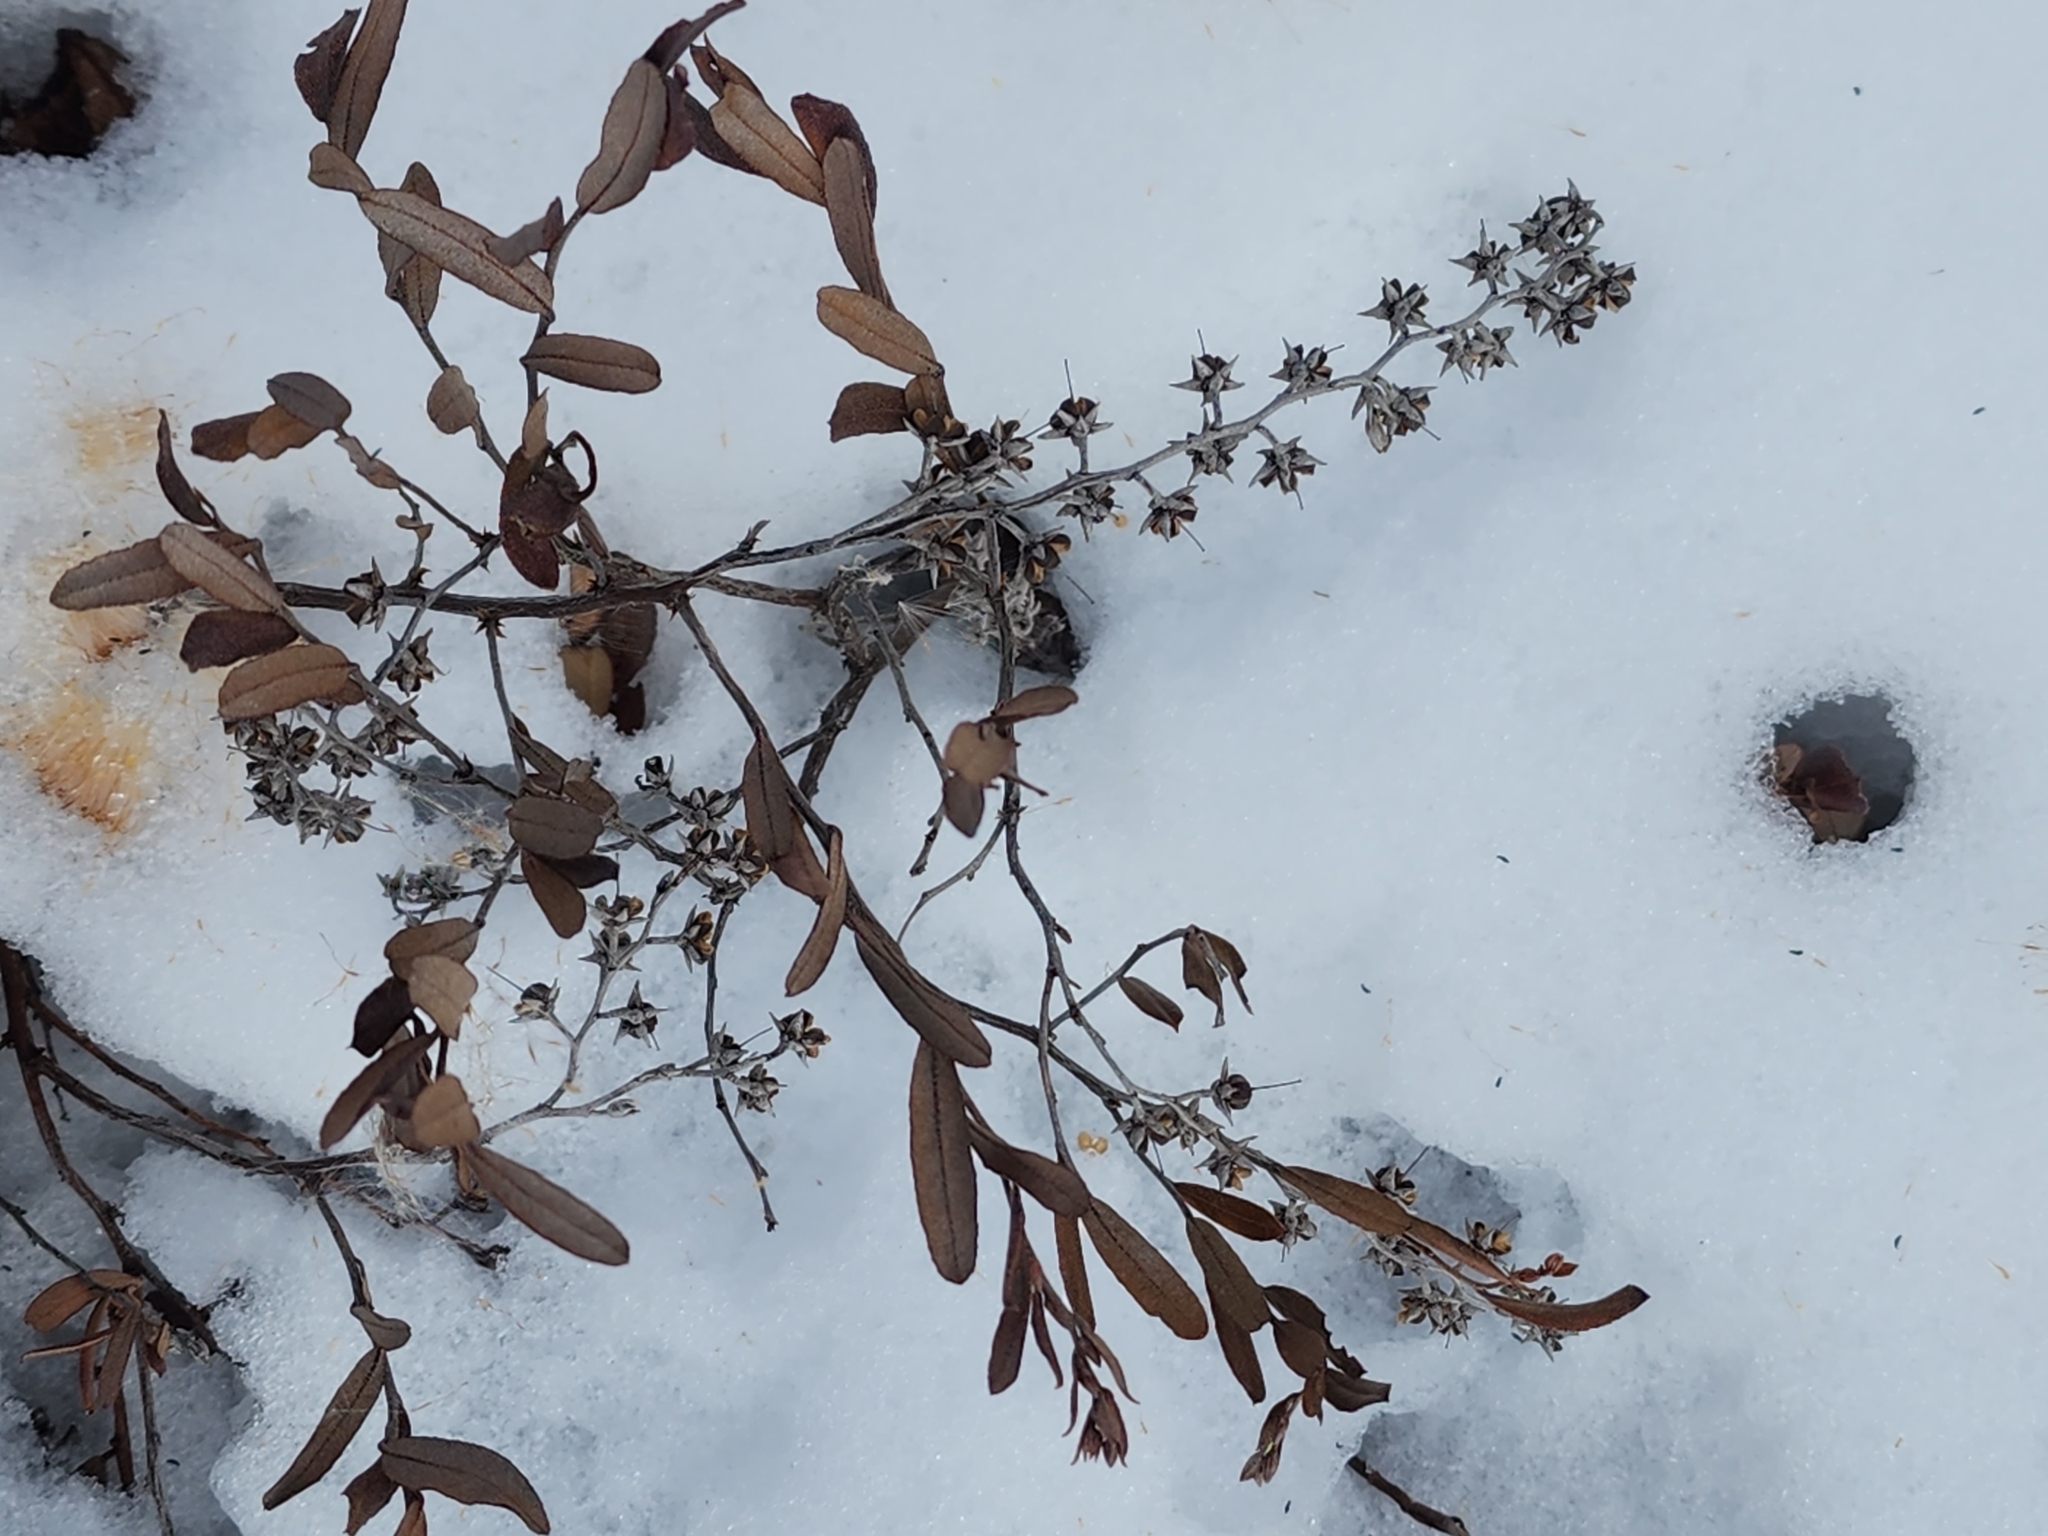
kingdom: Plantae
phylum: Tracheophyta
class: Magnoliopsida
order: Ericales
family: Ericaceae
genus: Chamaedaphne
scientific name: Chamaedaphne calyculata
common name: Leatherleaf
